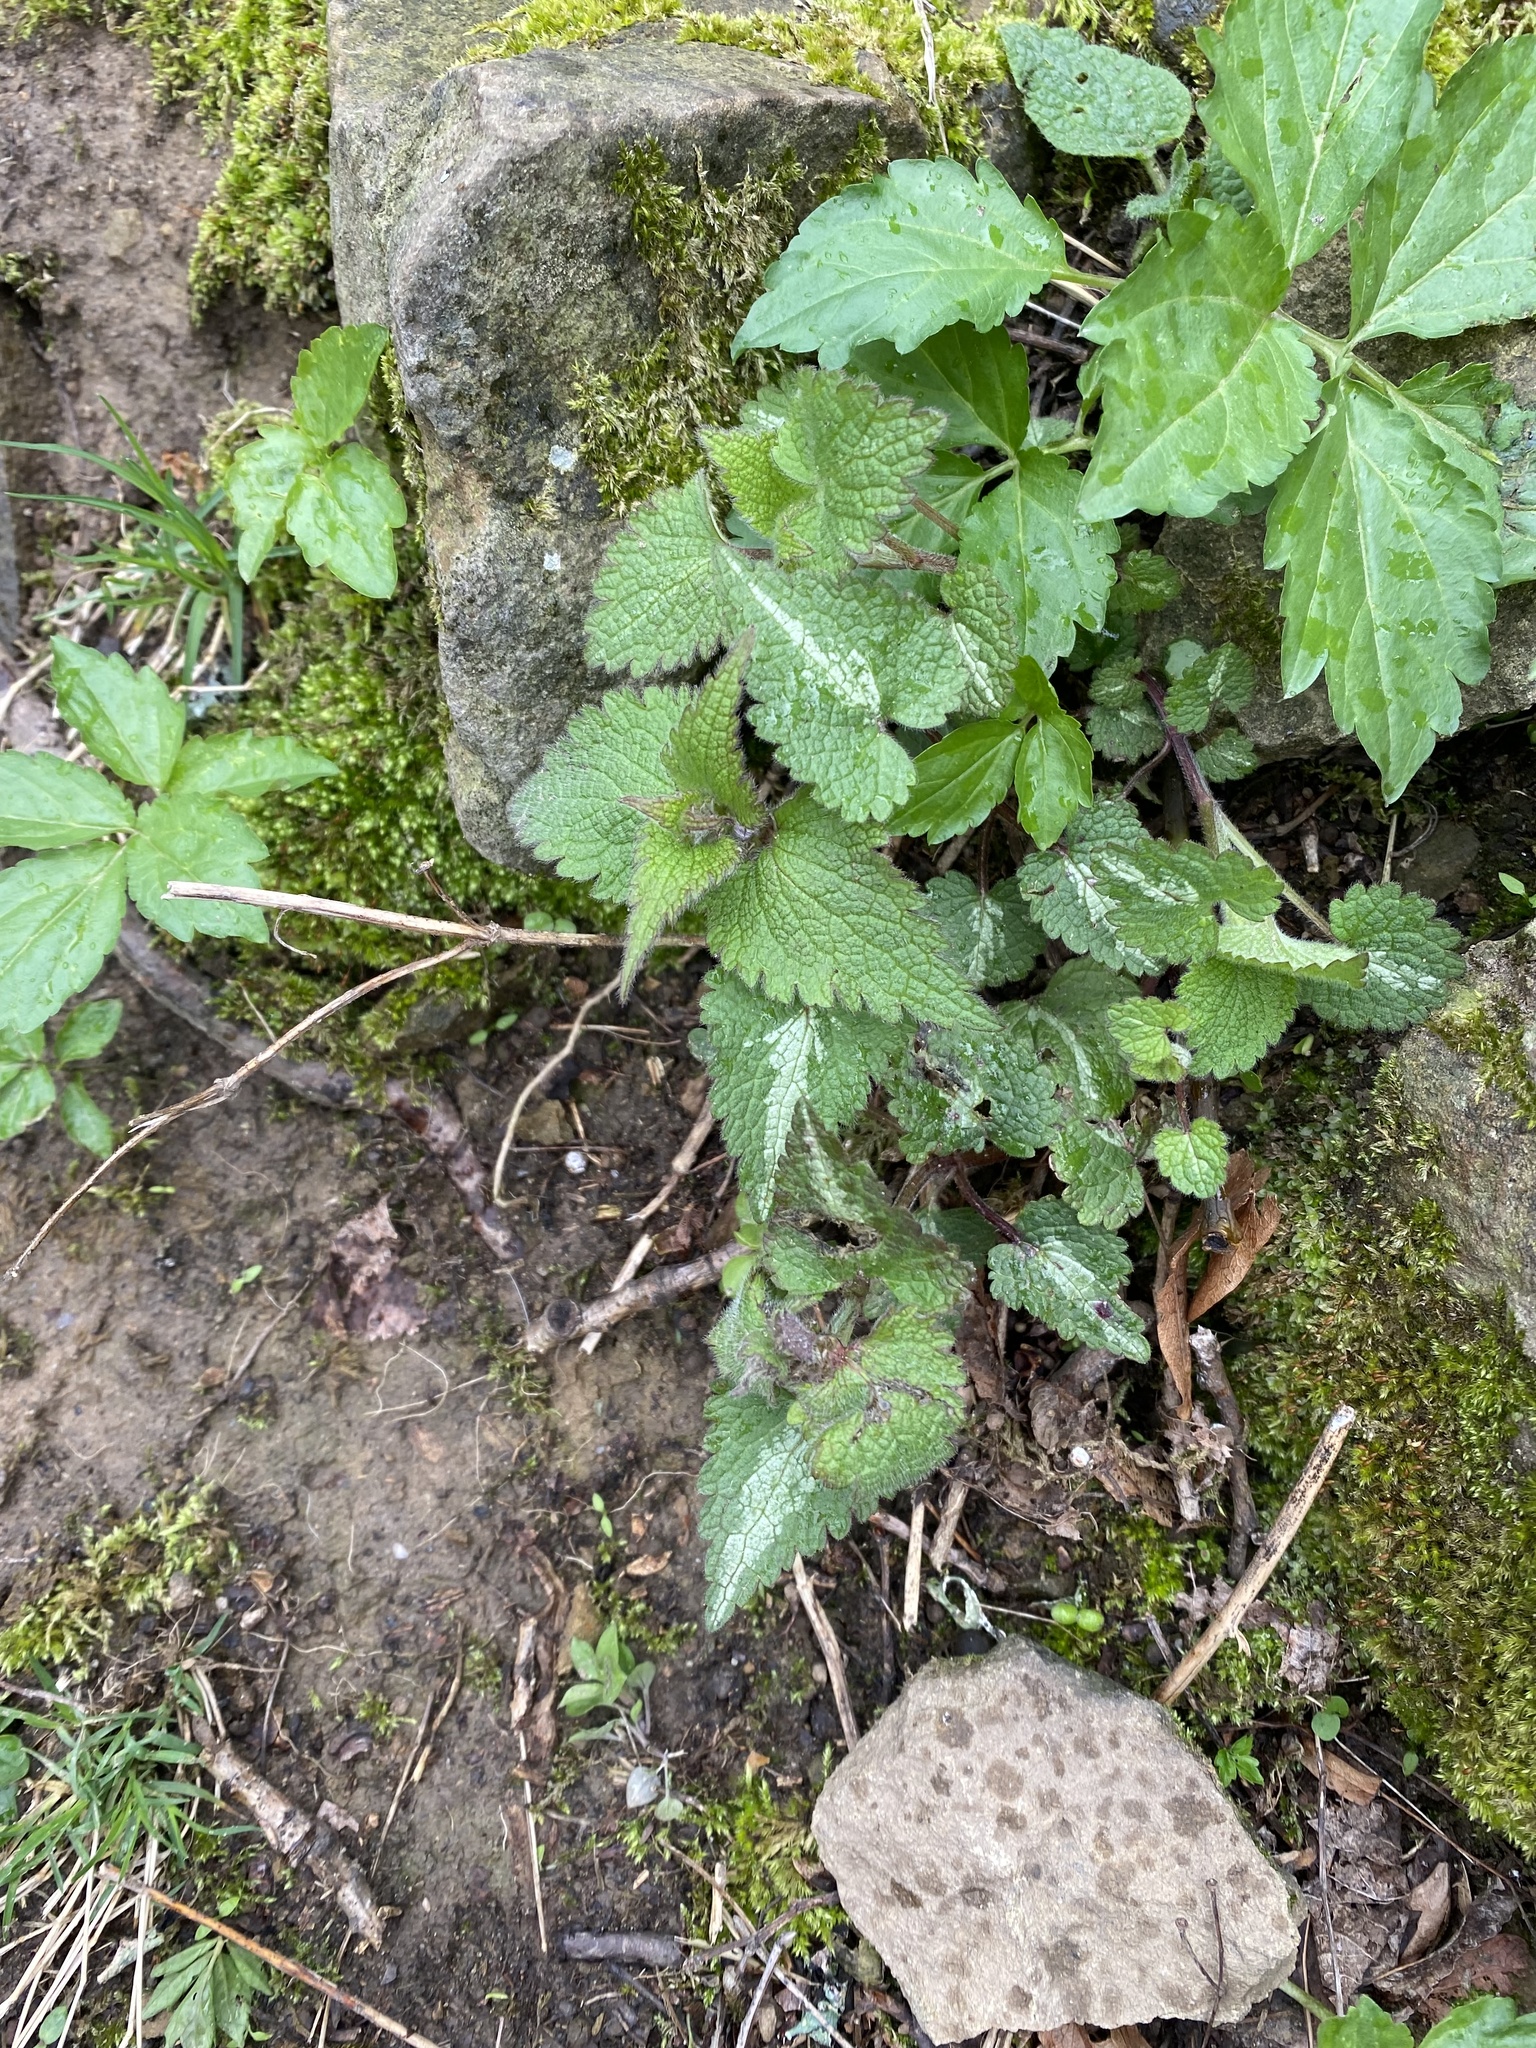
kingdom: Plantae
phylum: Tracheophyta
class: Magnoliopsida
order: Lamiales
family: Lamiaceae
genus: Lamium
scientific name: Lamium maculatum
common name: Spotted dead-nettle
